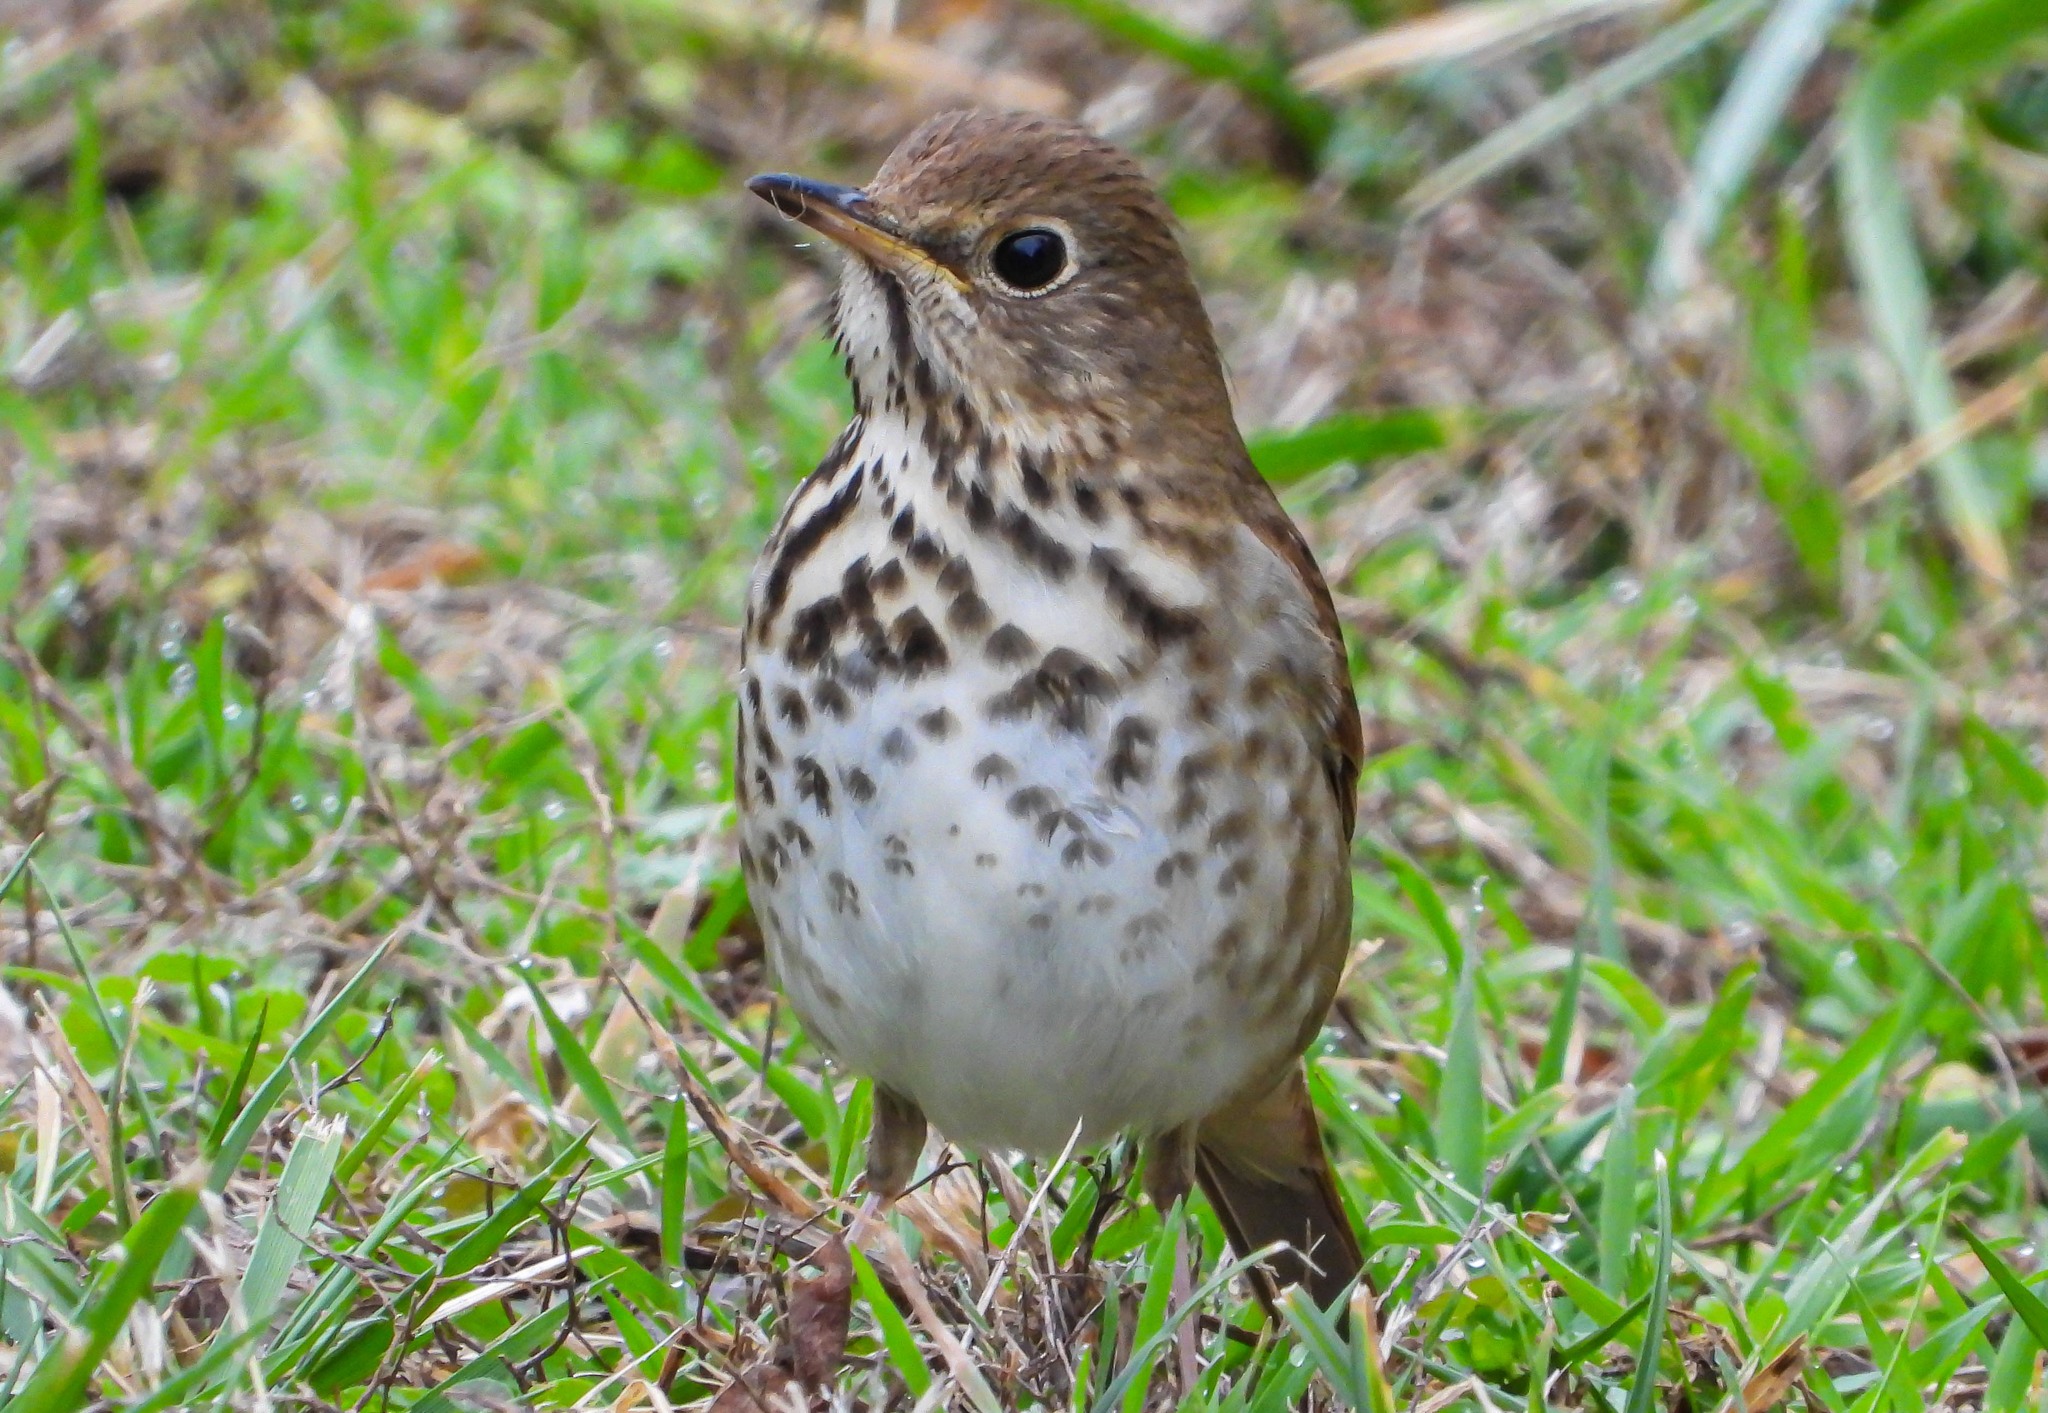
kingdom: Animalia
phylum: Chordata
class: Aves
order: Passeriformes
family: Turdidae
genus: Catharus
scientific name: Catharus guttatus
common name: Hermit thrush
